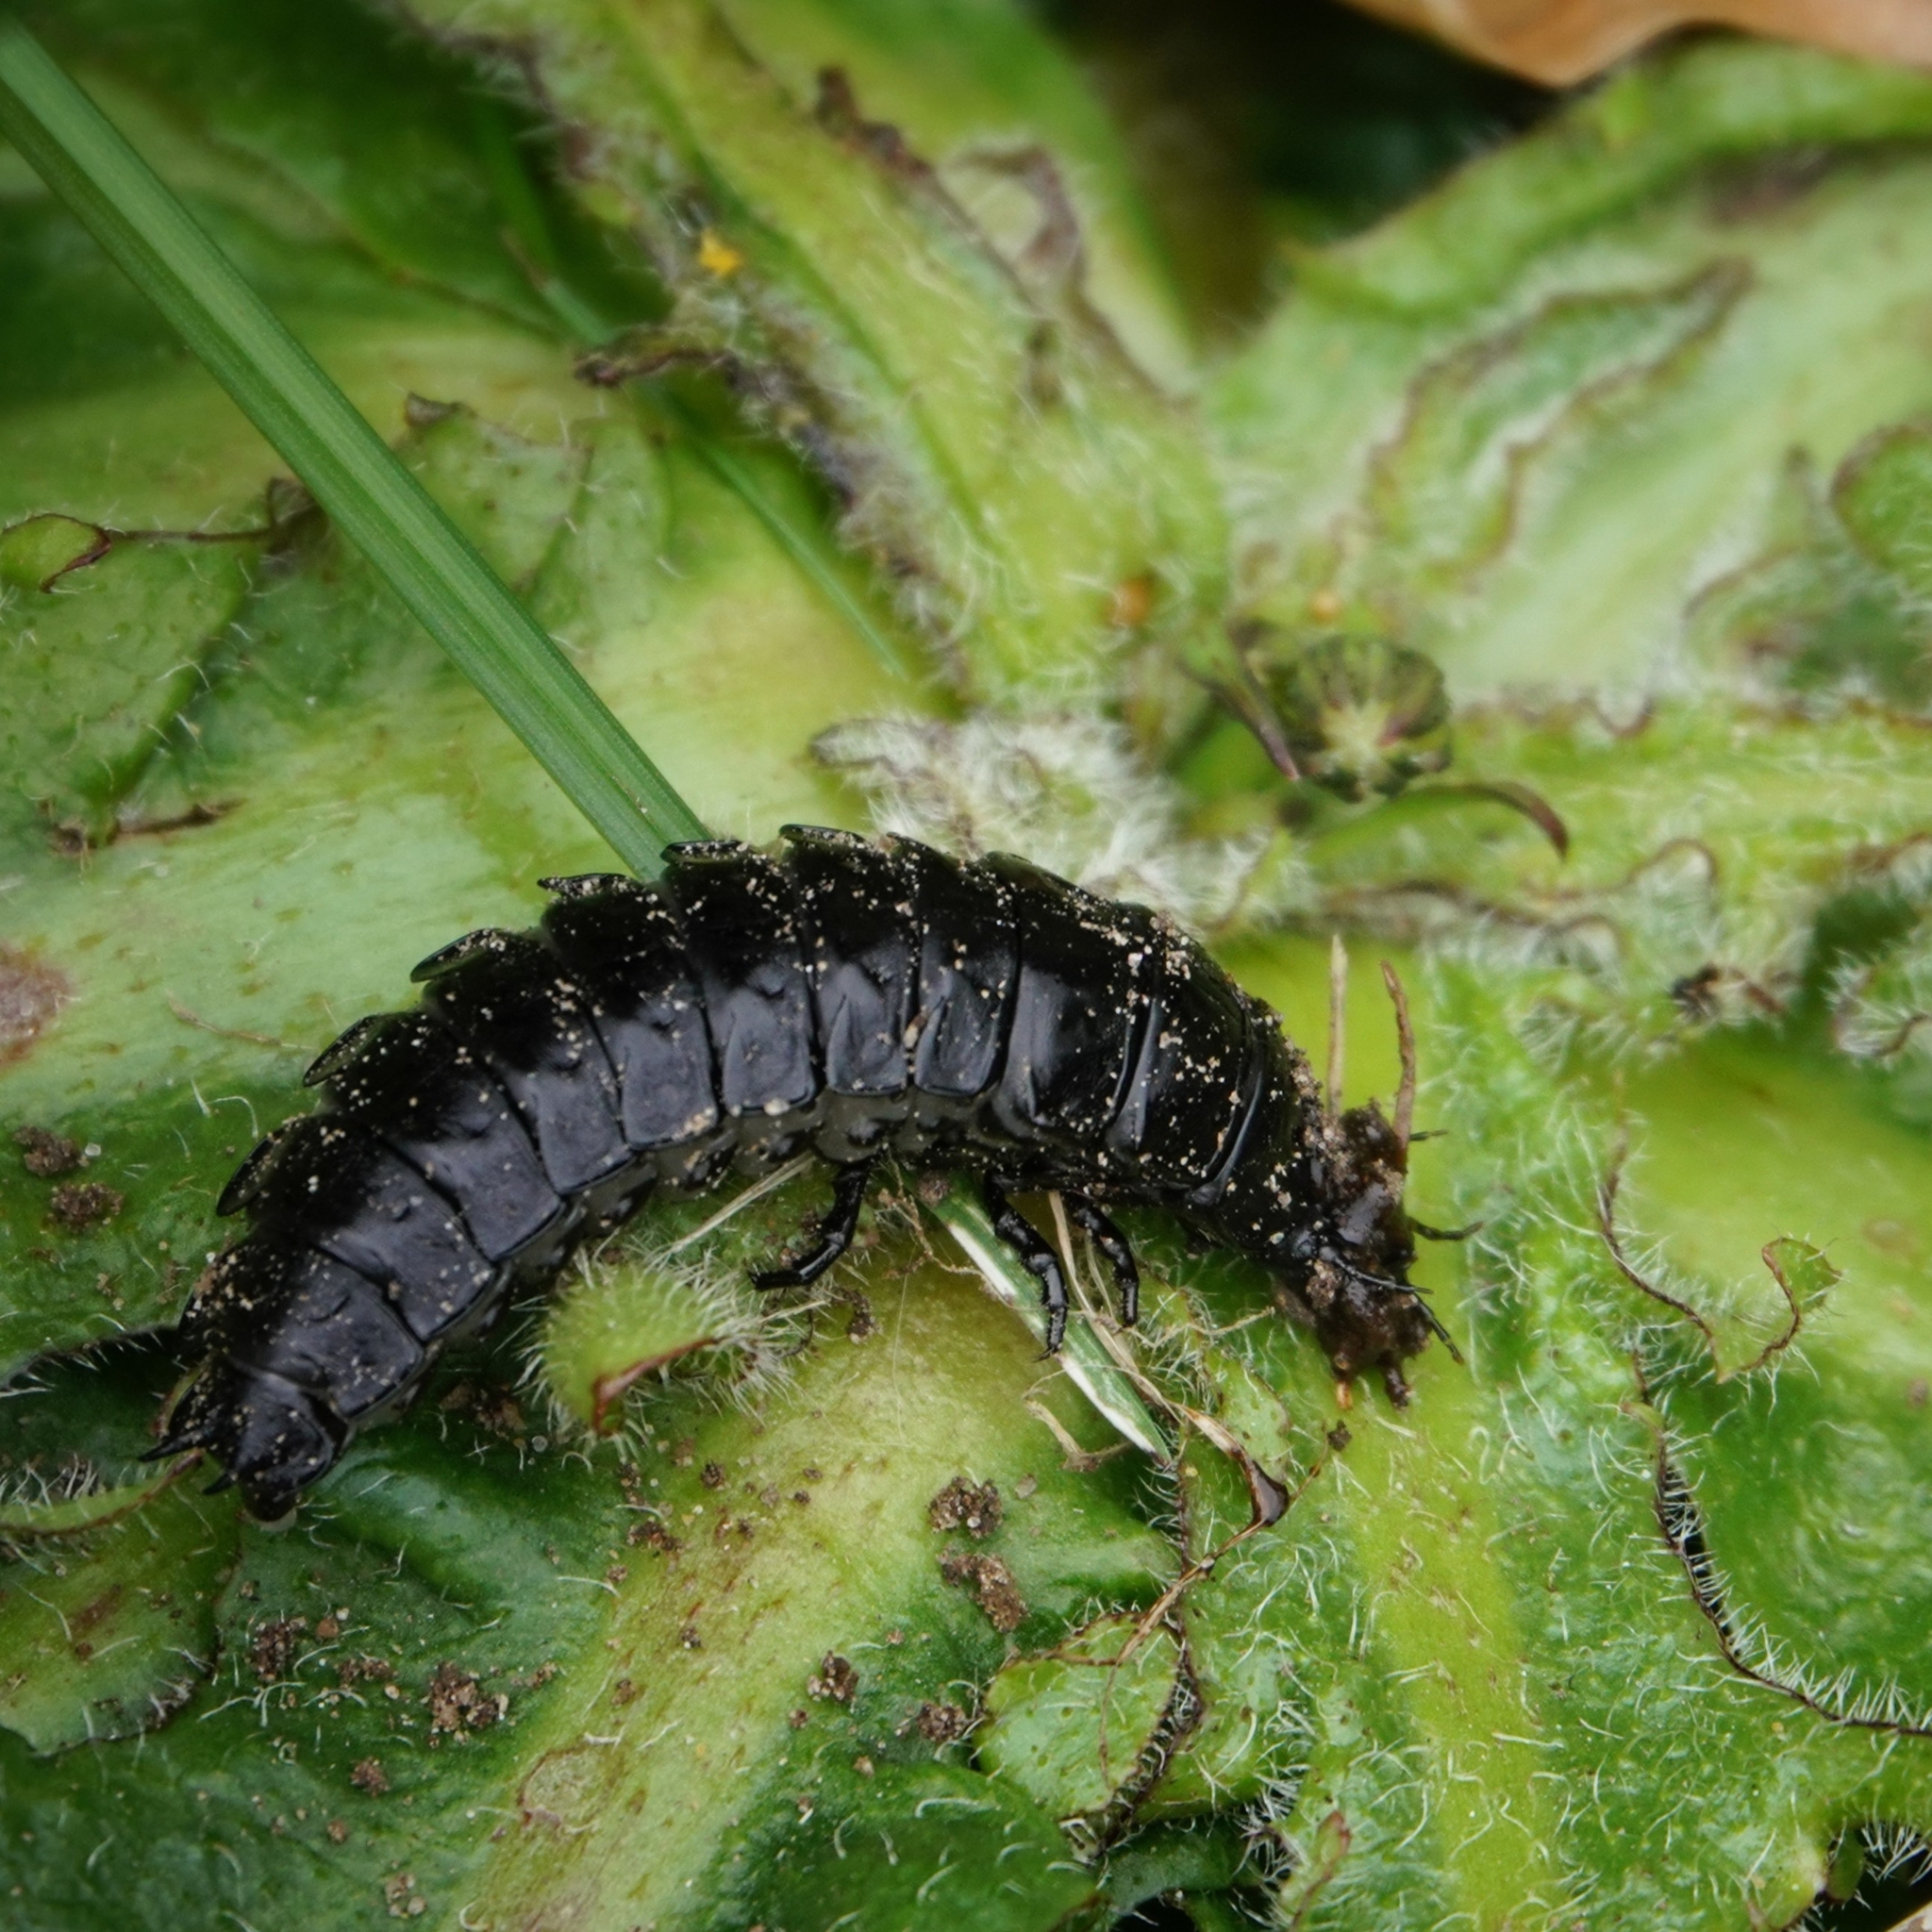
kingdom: Animalia
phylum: Arthropoda
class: Insecta
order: Coleoptera
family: Carabidae
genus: Carabus
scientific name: Carabus
